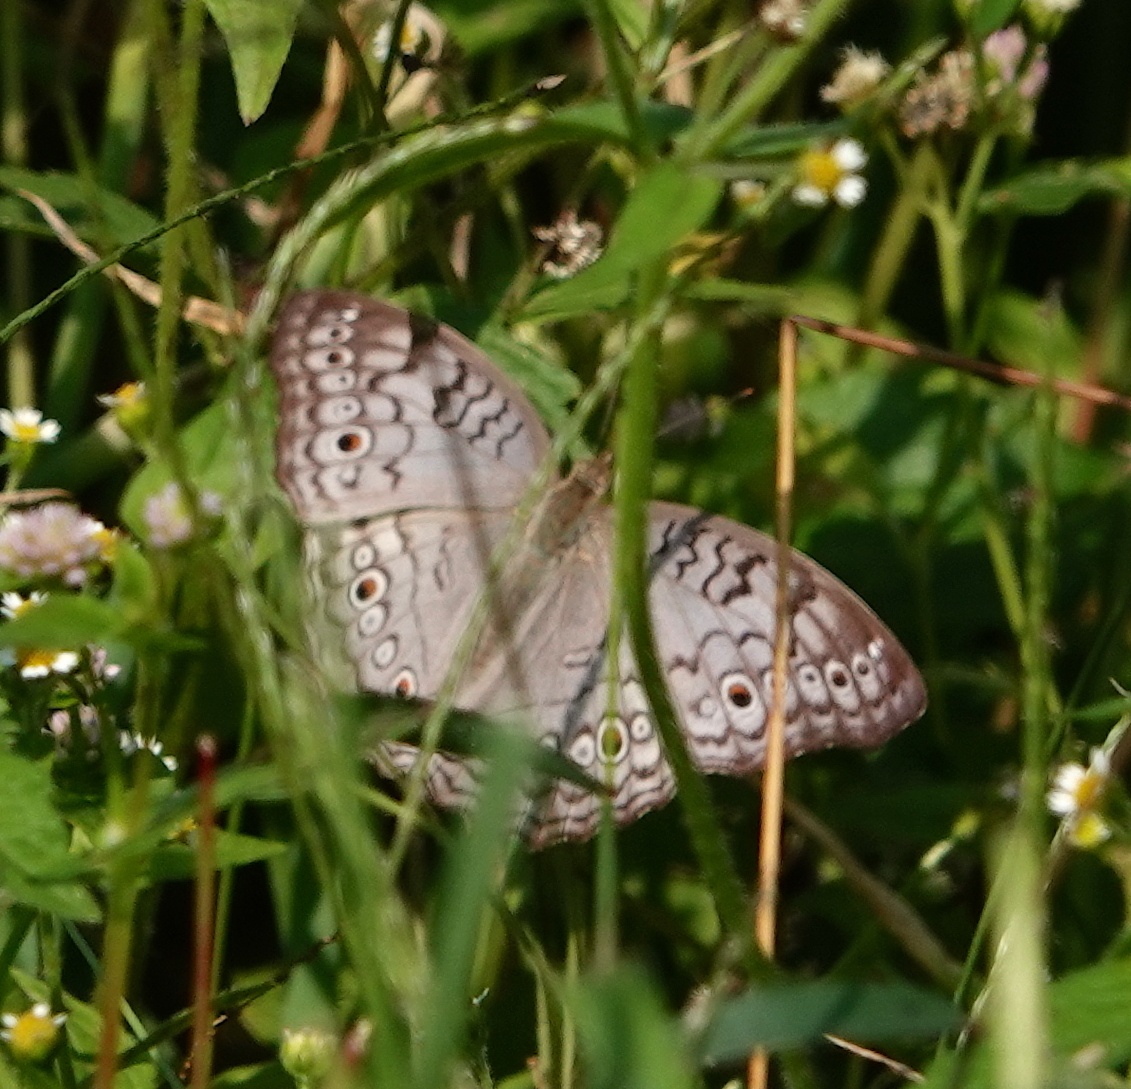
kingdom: Animalia
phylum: Arthropoda
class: Insecta
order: Lepidoptera
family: Nymphalidae
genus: Junonia
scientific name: Junonia atlites
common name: Grey pansy
